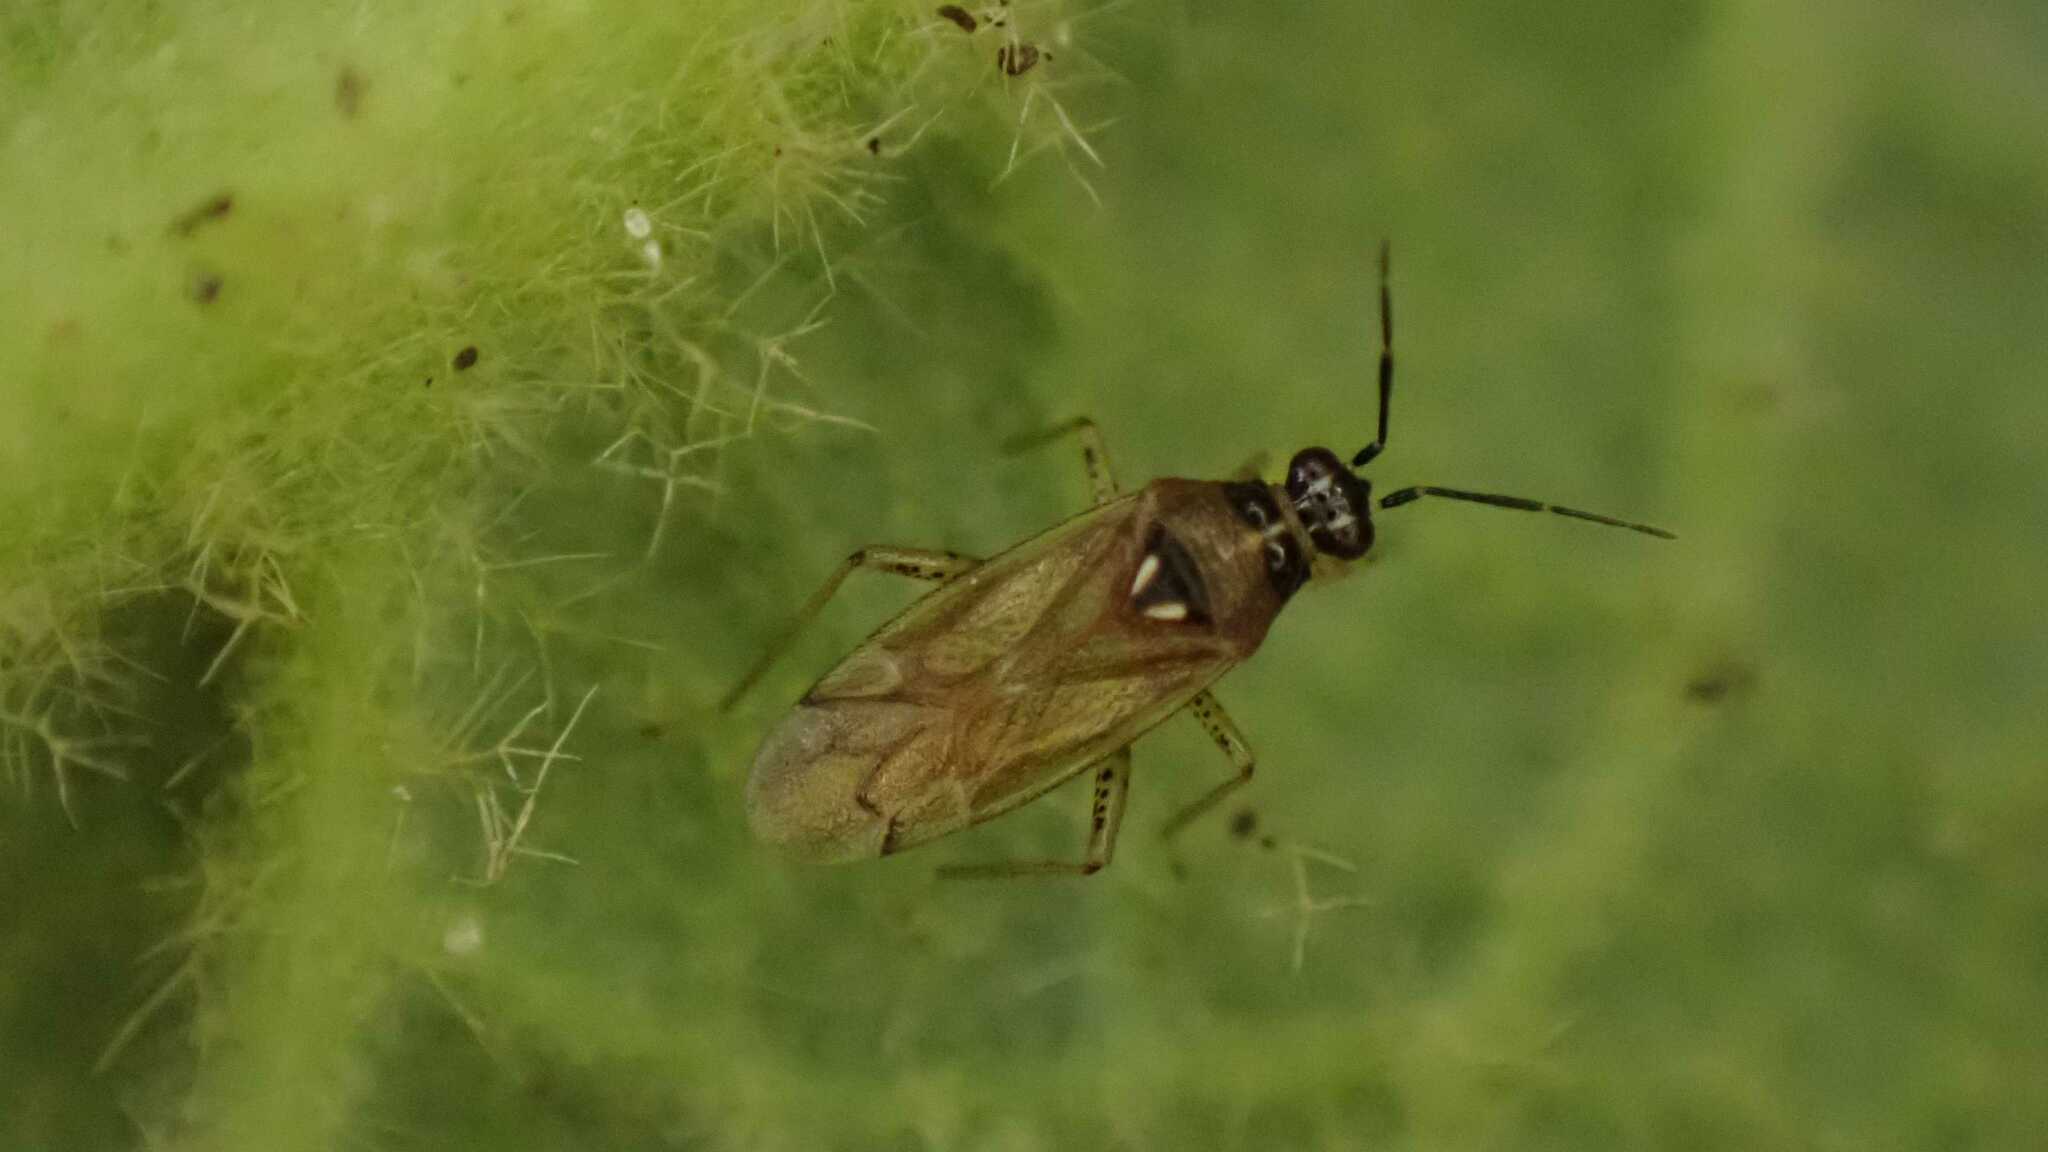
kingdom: Animalia
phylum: Arthropoda
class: Insecta
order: Hemiptera
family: Miridae
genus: Dicyphus
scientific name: Dicyphus globulifer
